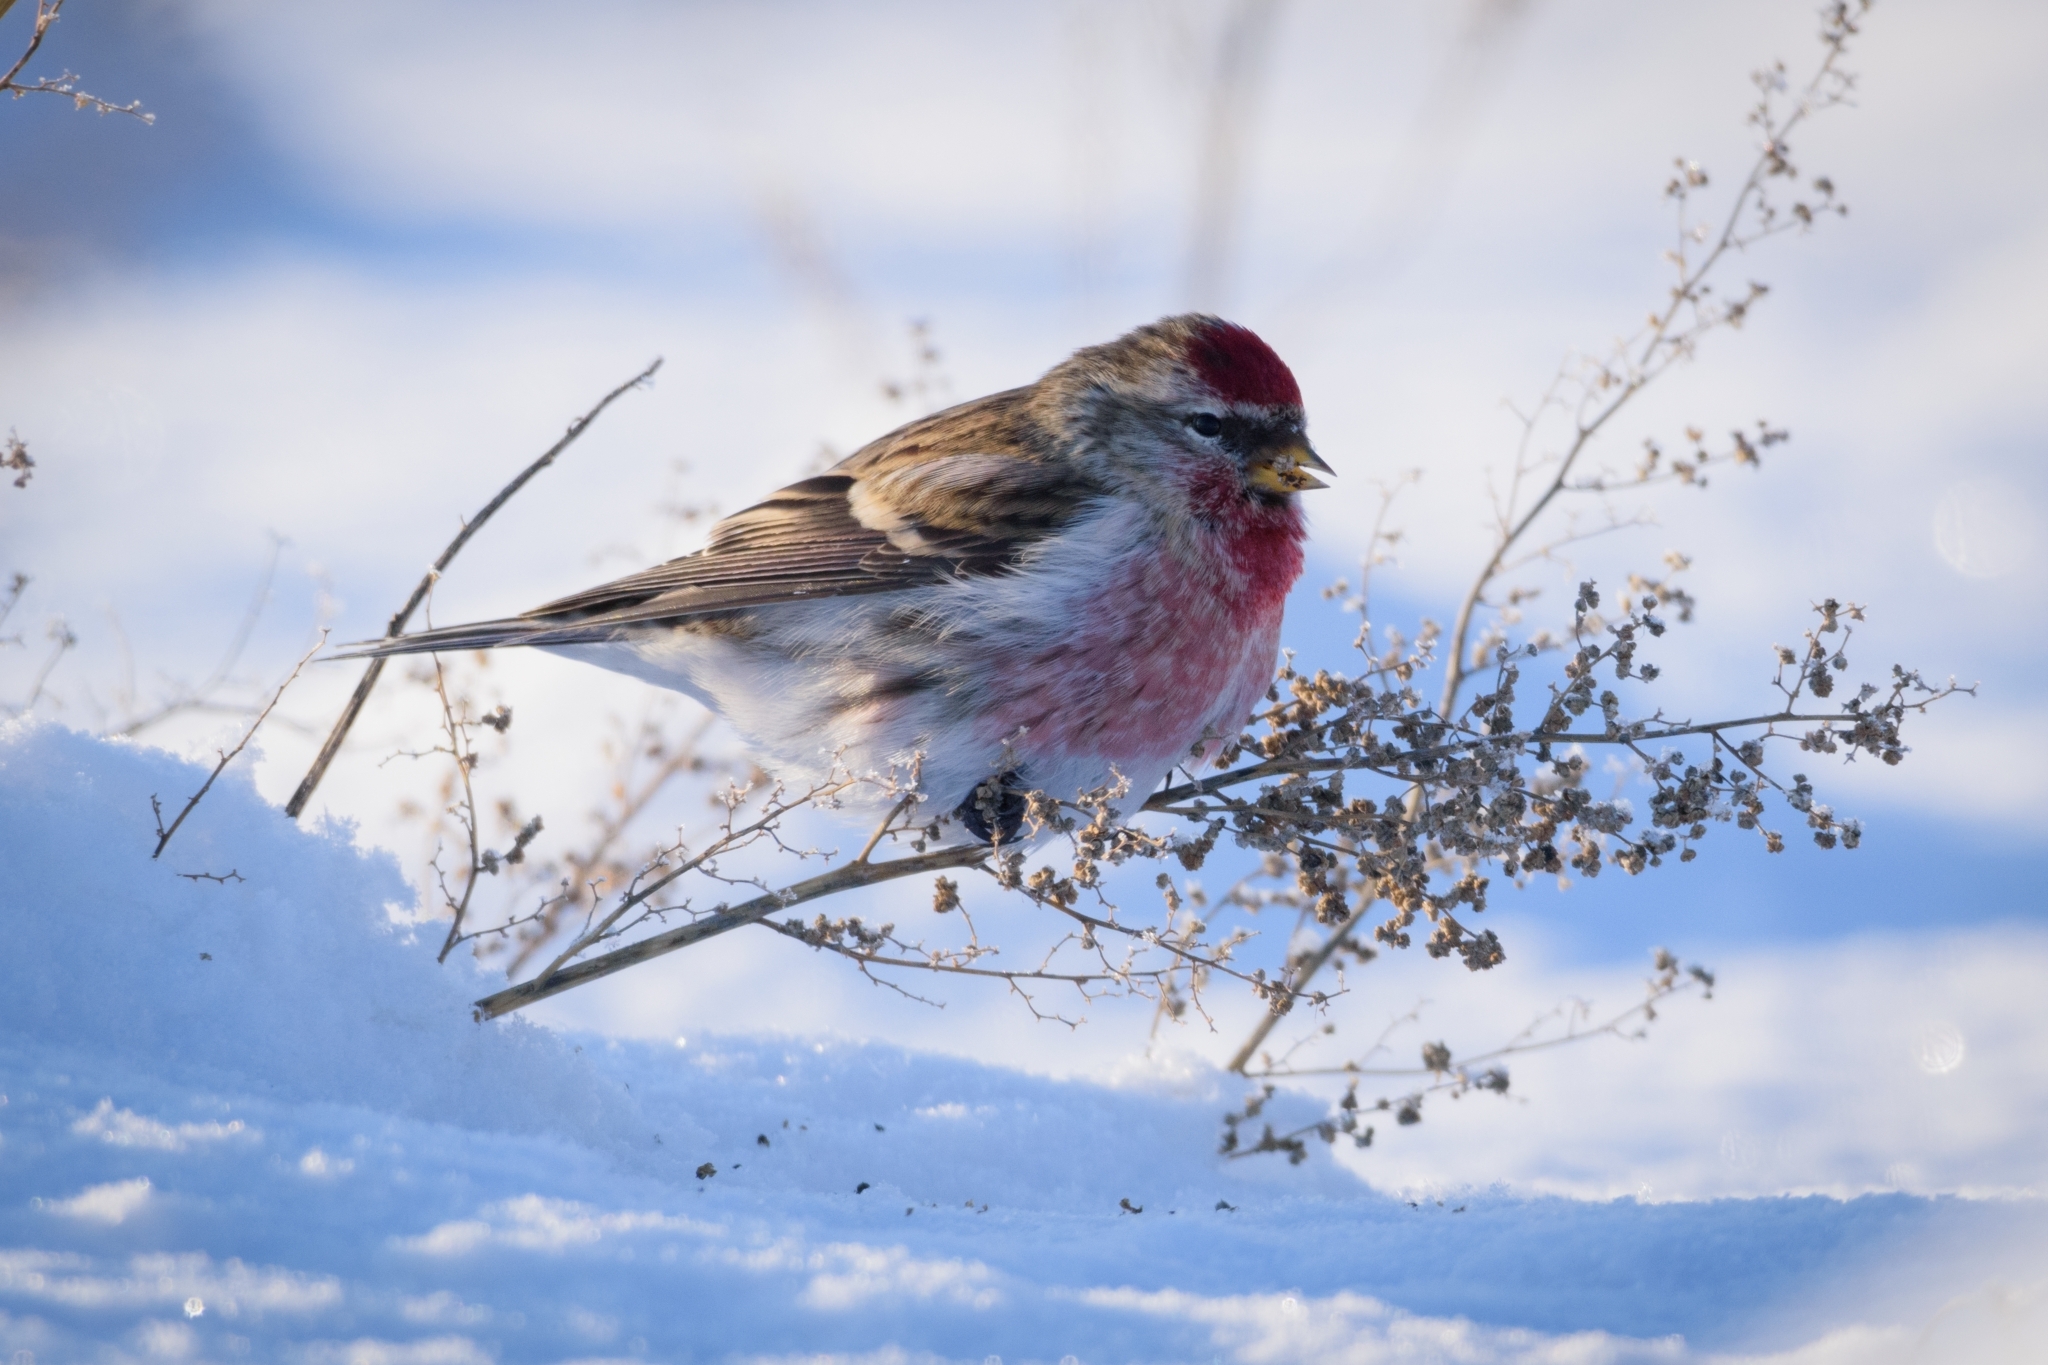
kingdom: Animalia
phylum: Chordata
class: Aves
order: Passeriformes
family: Fringillidae
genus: Acanthis
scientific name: Acanthis flammea
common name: Common redpoll
